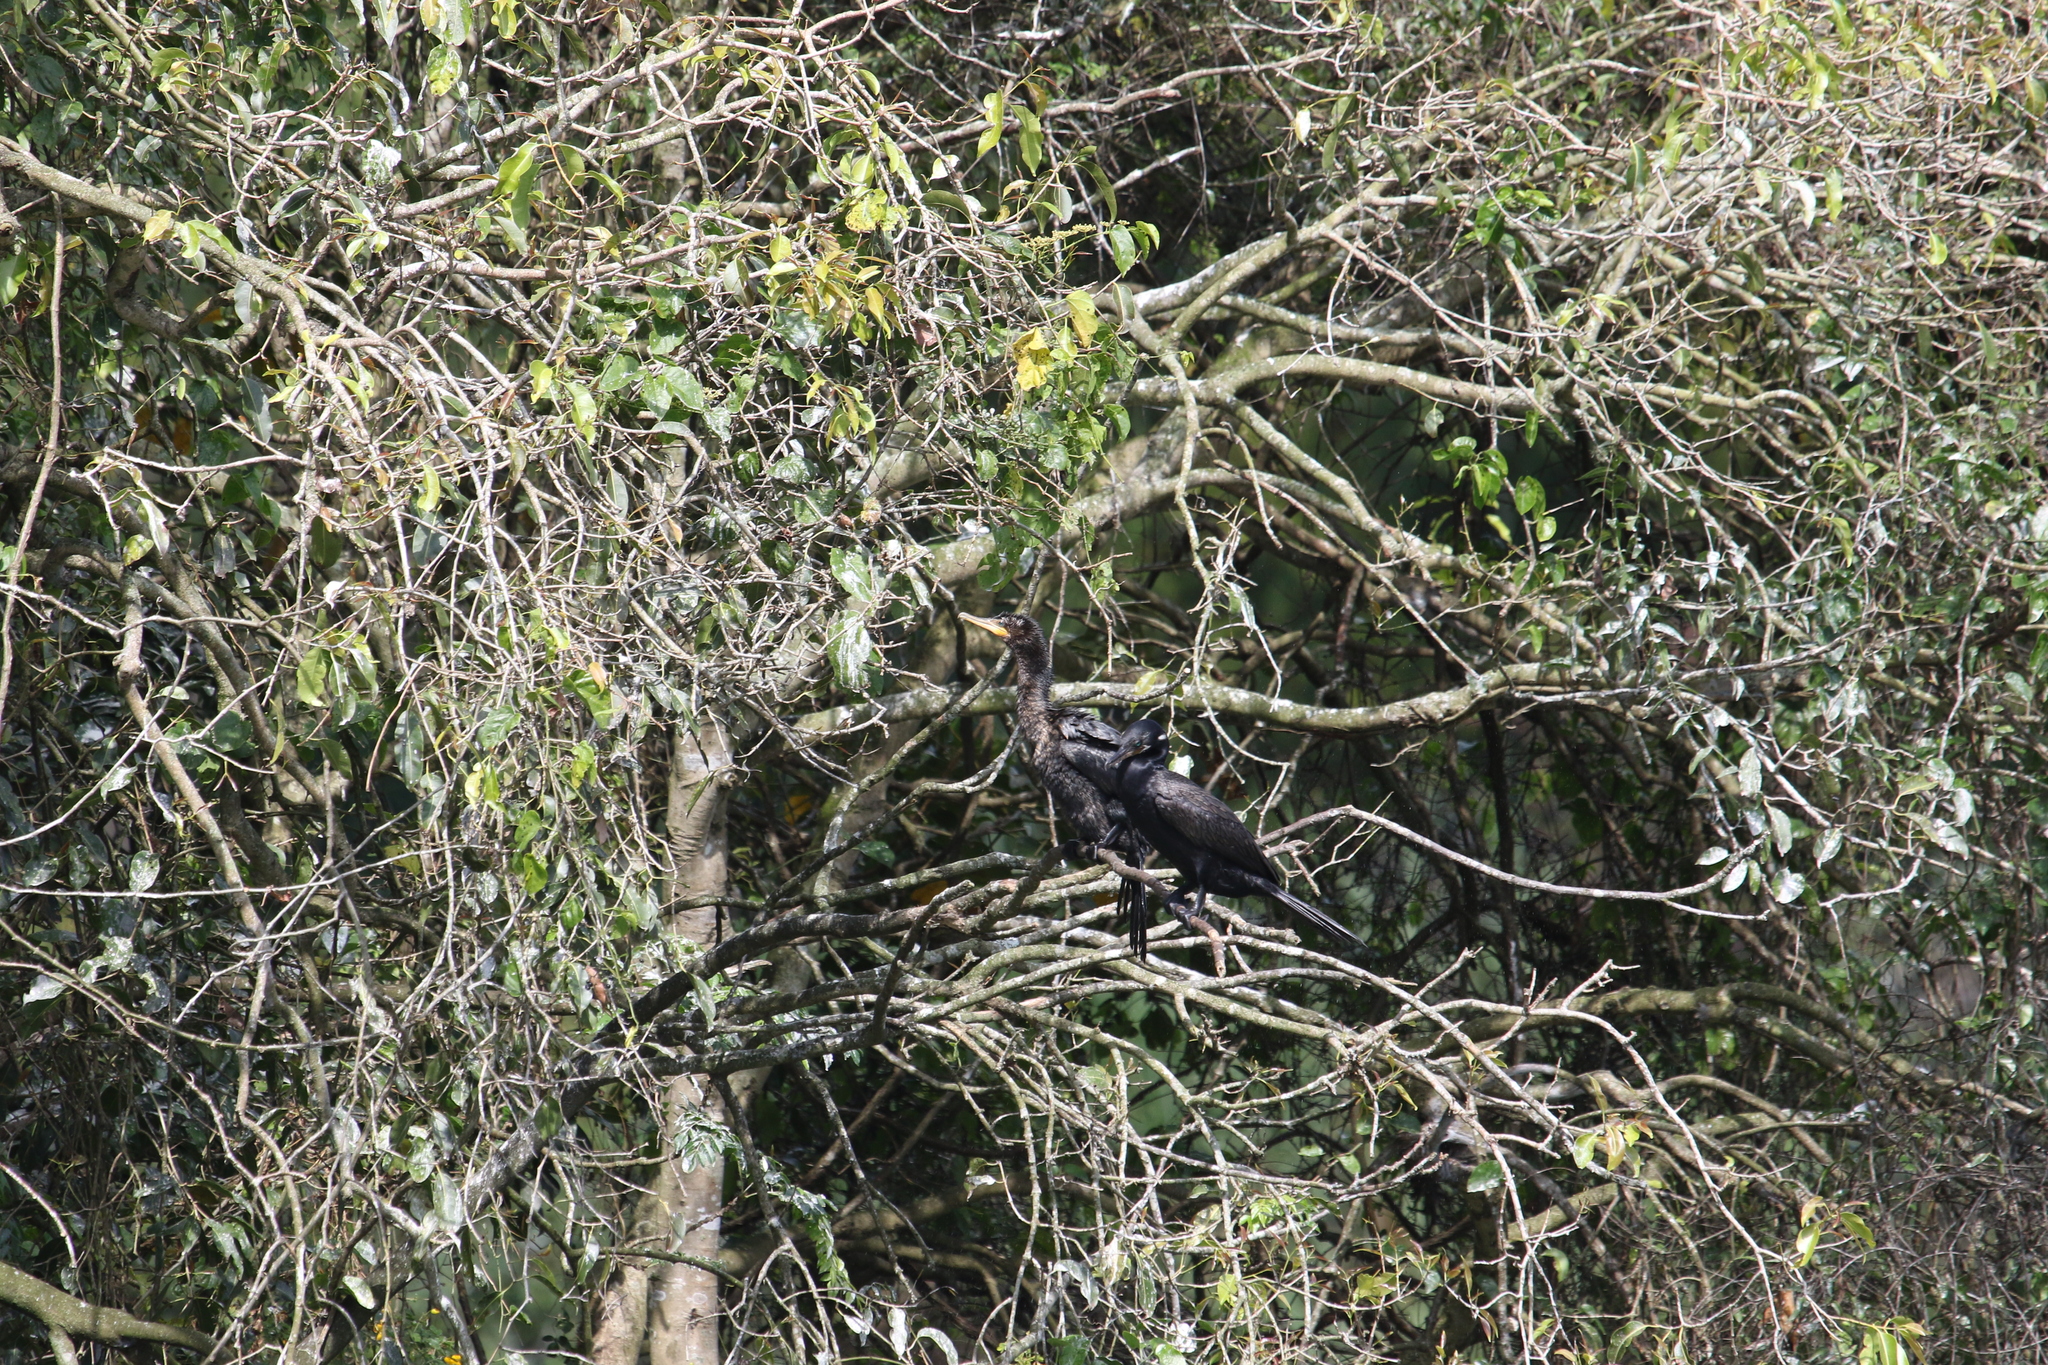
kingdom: Animalia
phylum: Chordata
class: Aves
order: Suliformes
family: Phalacrocoracidae
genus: Phalacrocorax
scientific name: Phalacrocorax brasilianus
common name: Neotropic cormorant
